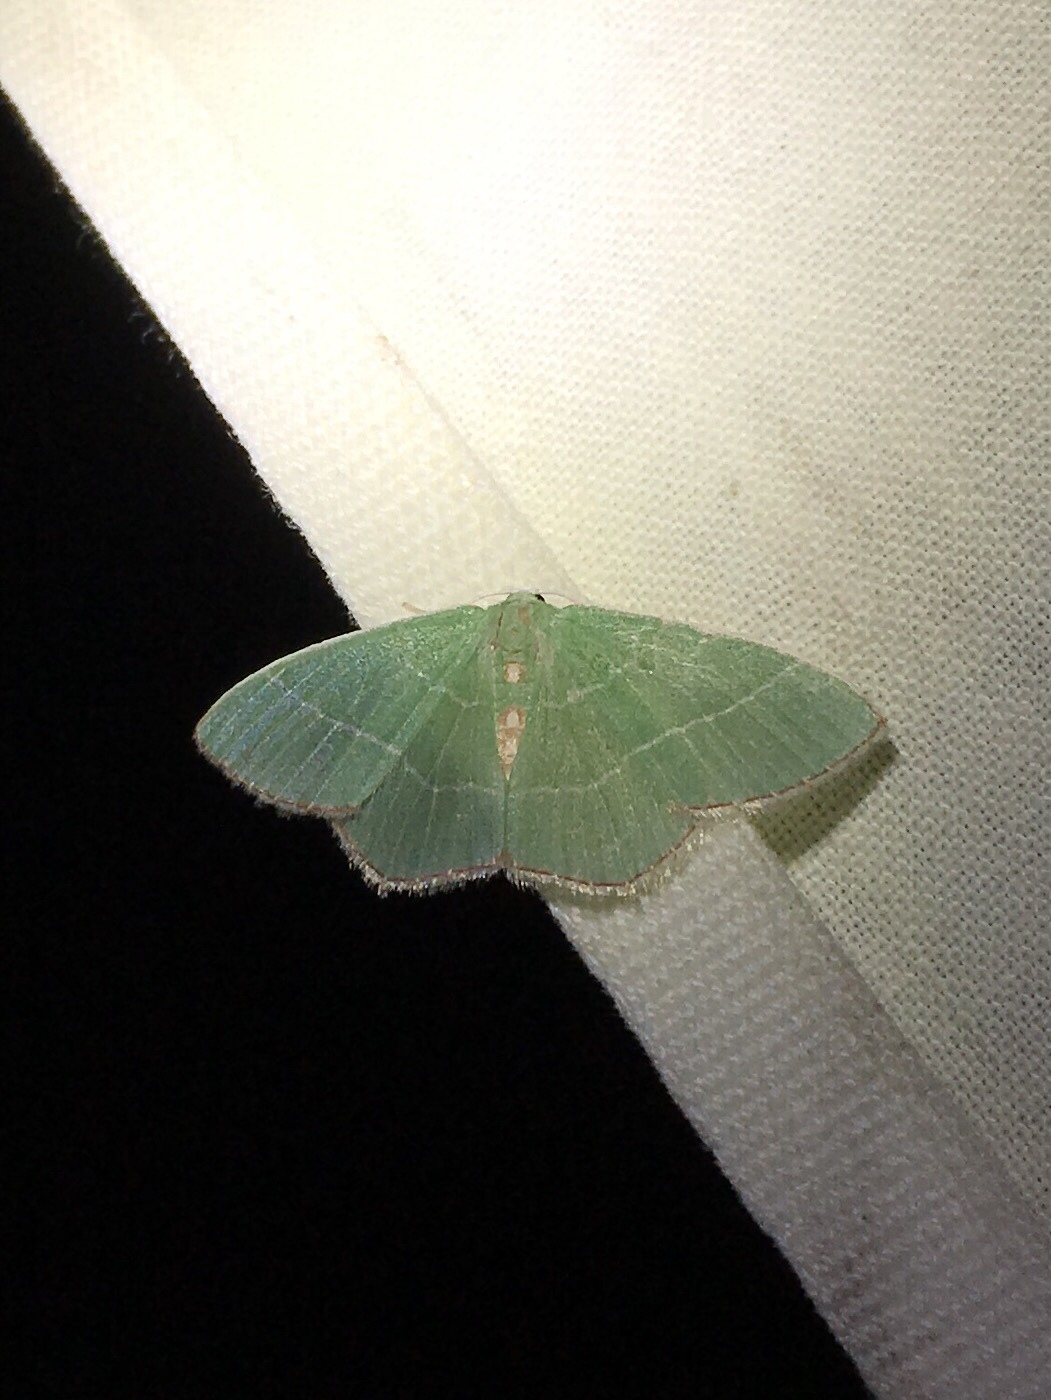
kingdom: Animalia
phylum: Arthropoda
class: Insecta
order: Lepidoptera
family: Geometridae
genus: Nemoria
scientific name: Nemoria bistriaria
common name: Red-fringed emerald
